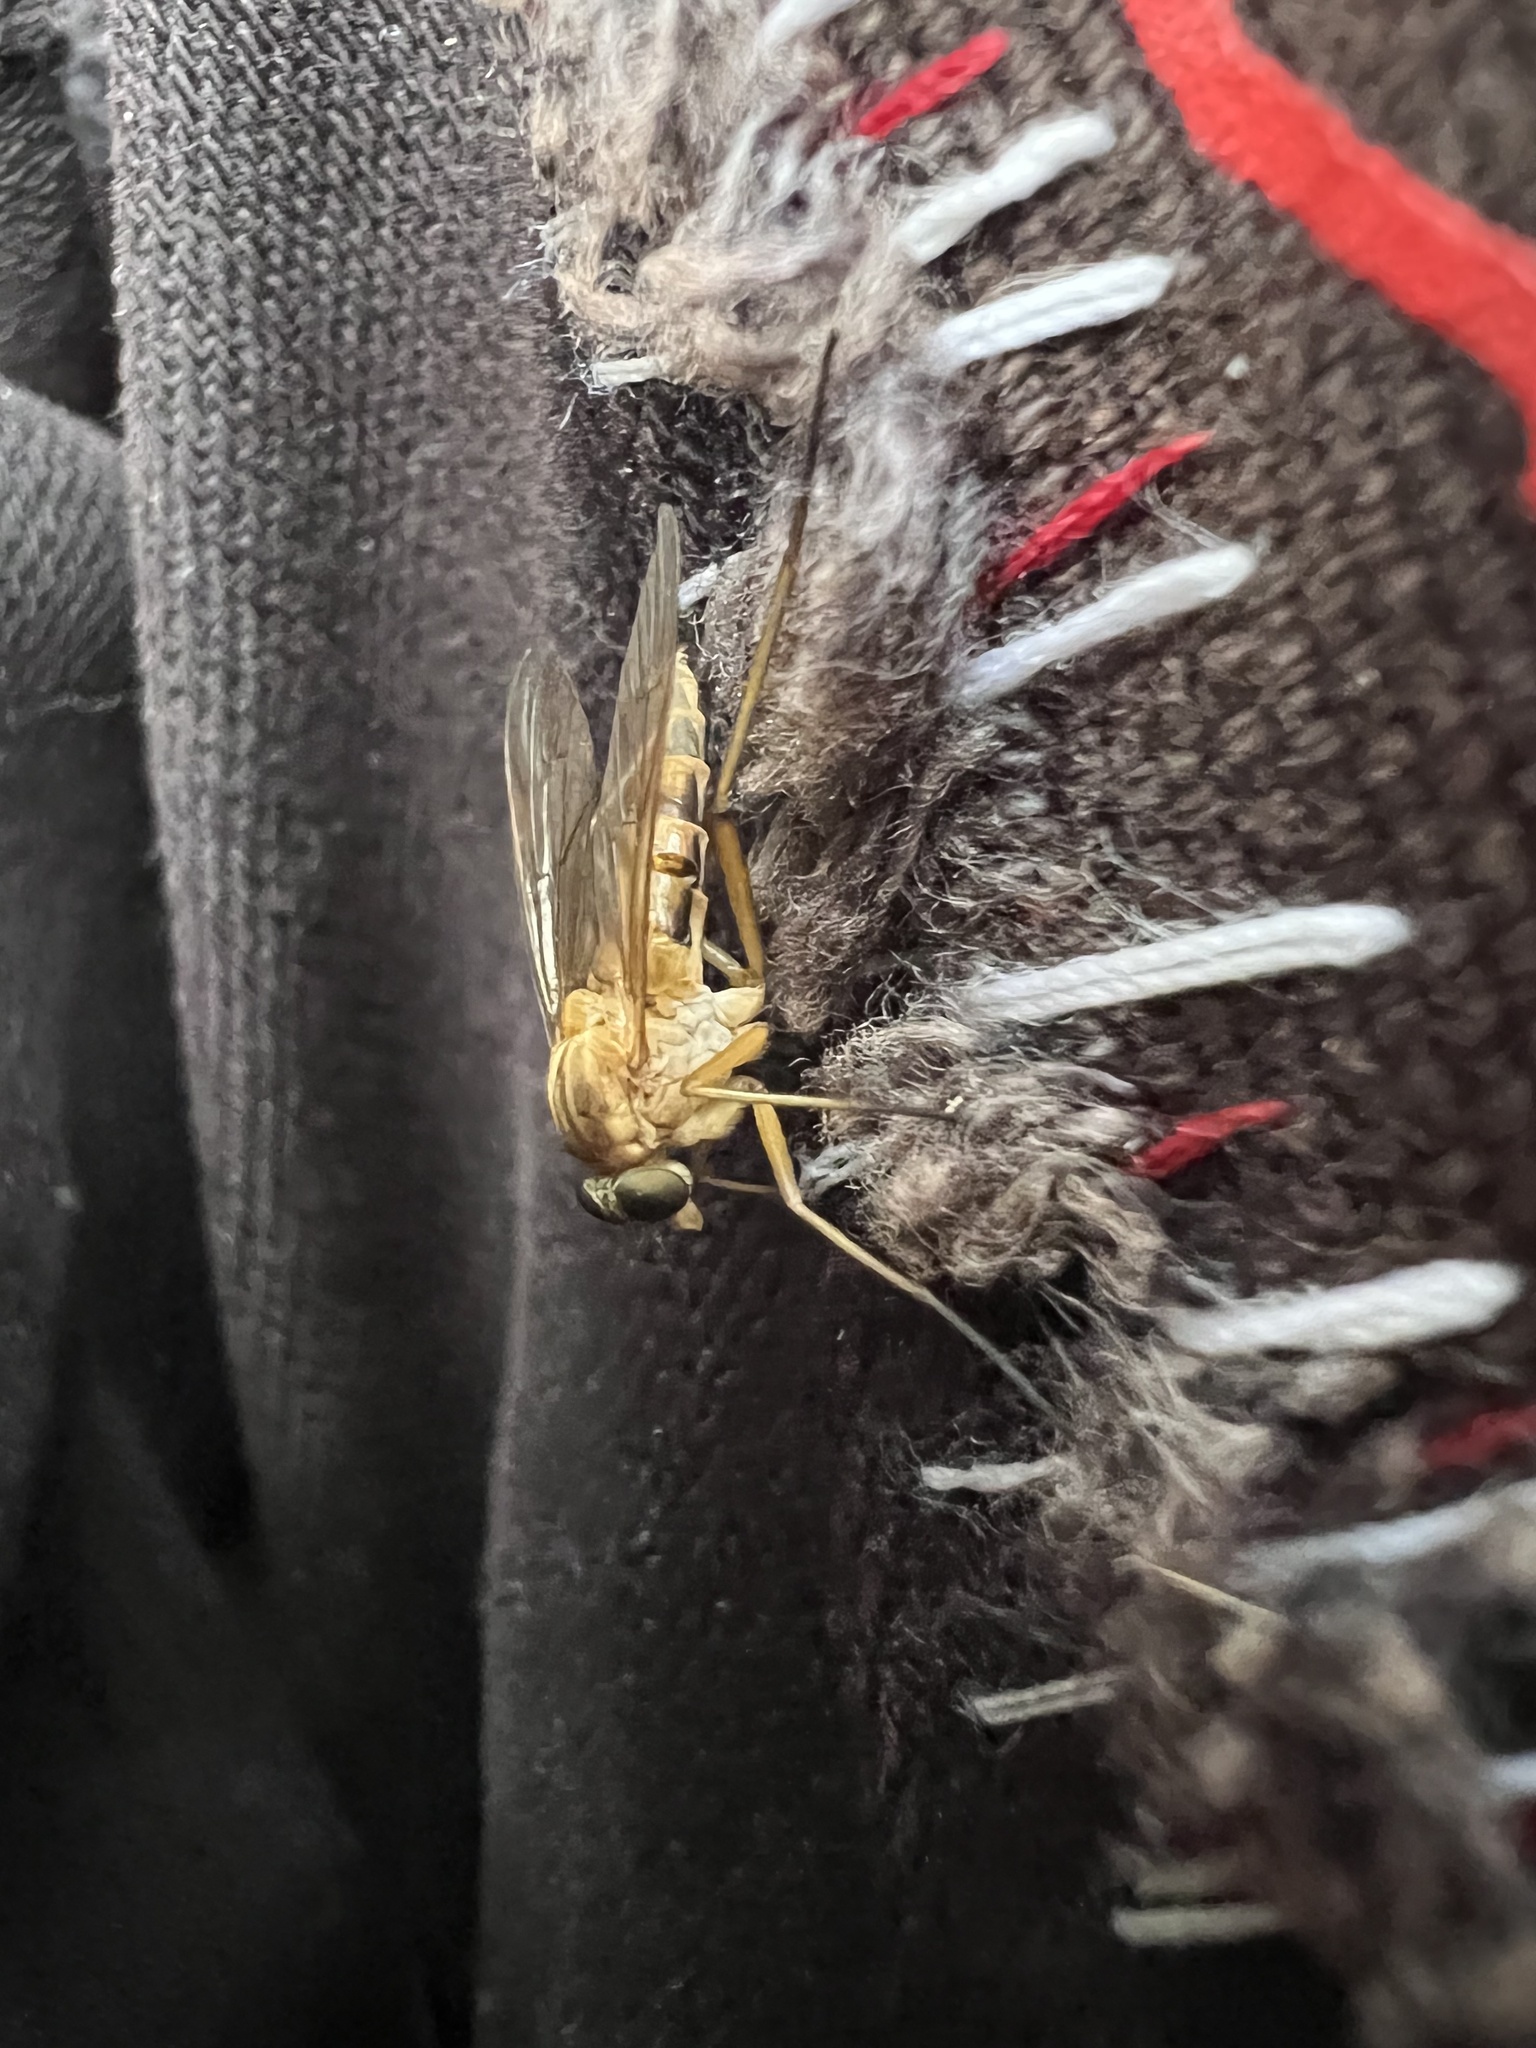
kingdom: Animalia
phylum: Arthropoda
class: Insecta
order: Diptera
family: Rhagionidae
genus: Rhagio
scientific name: Rhagio tringaria
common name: Marsh snipefly
